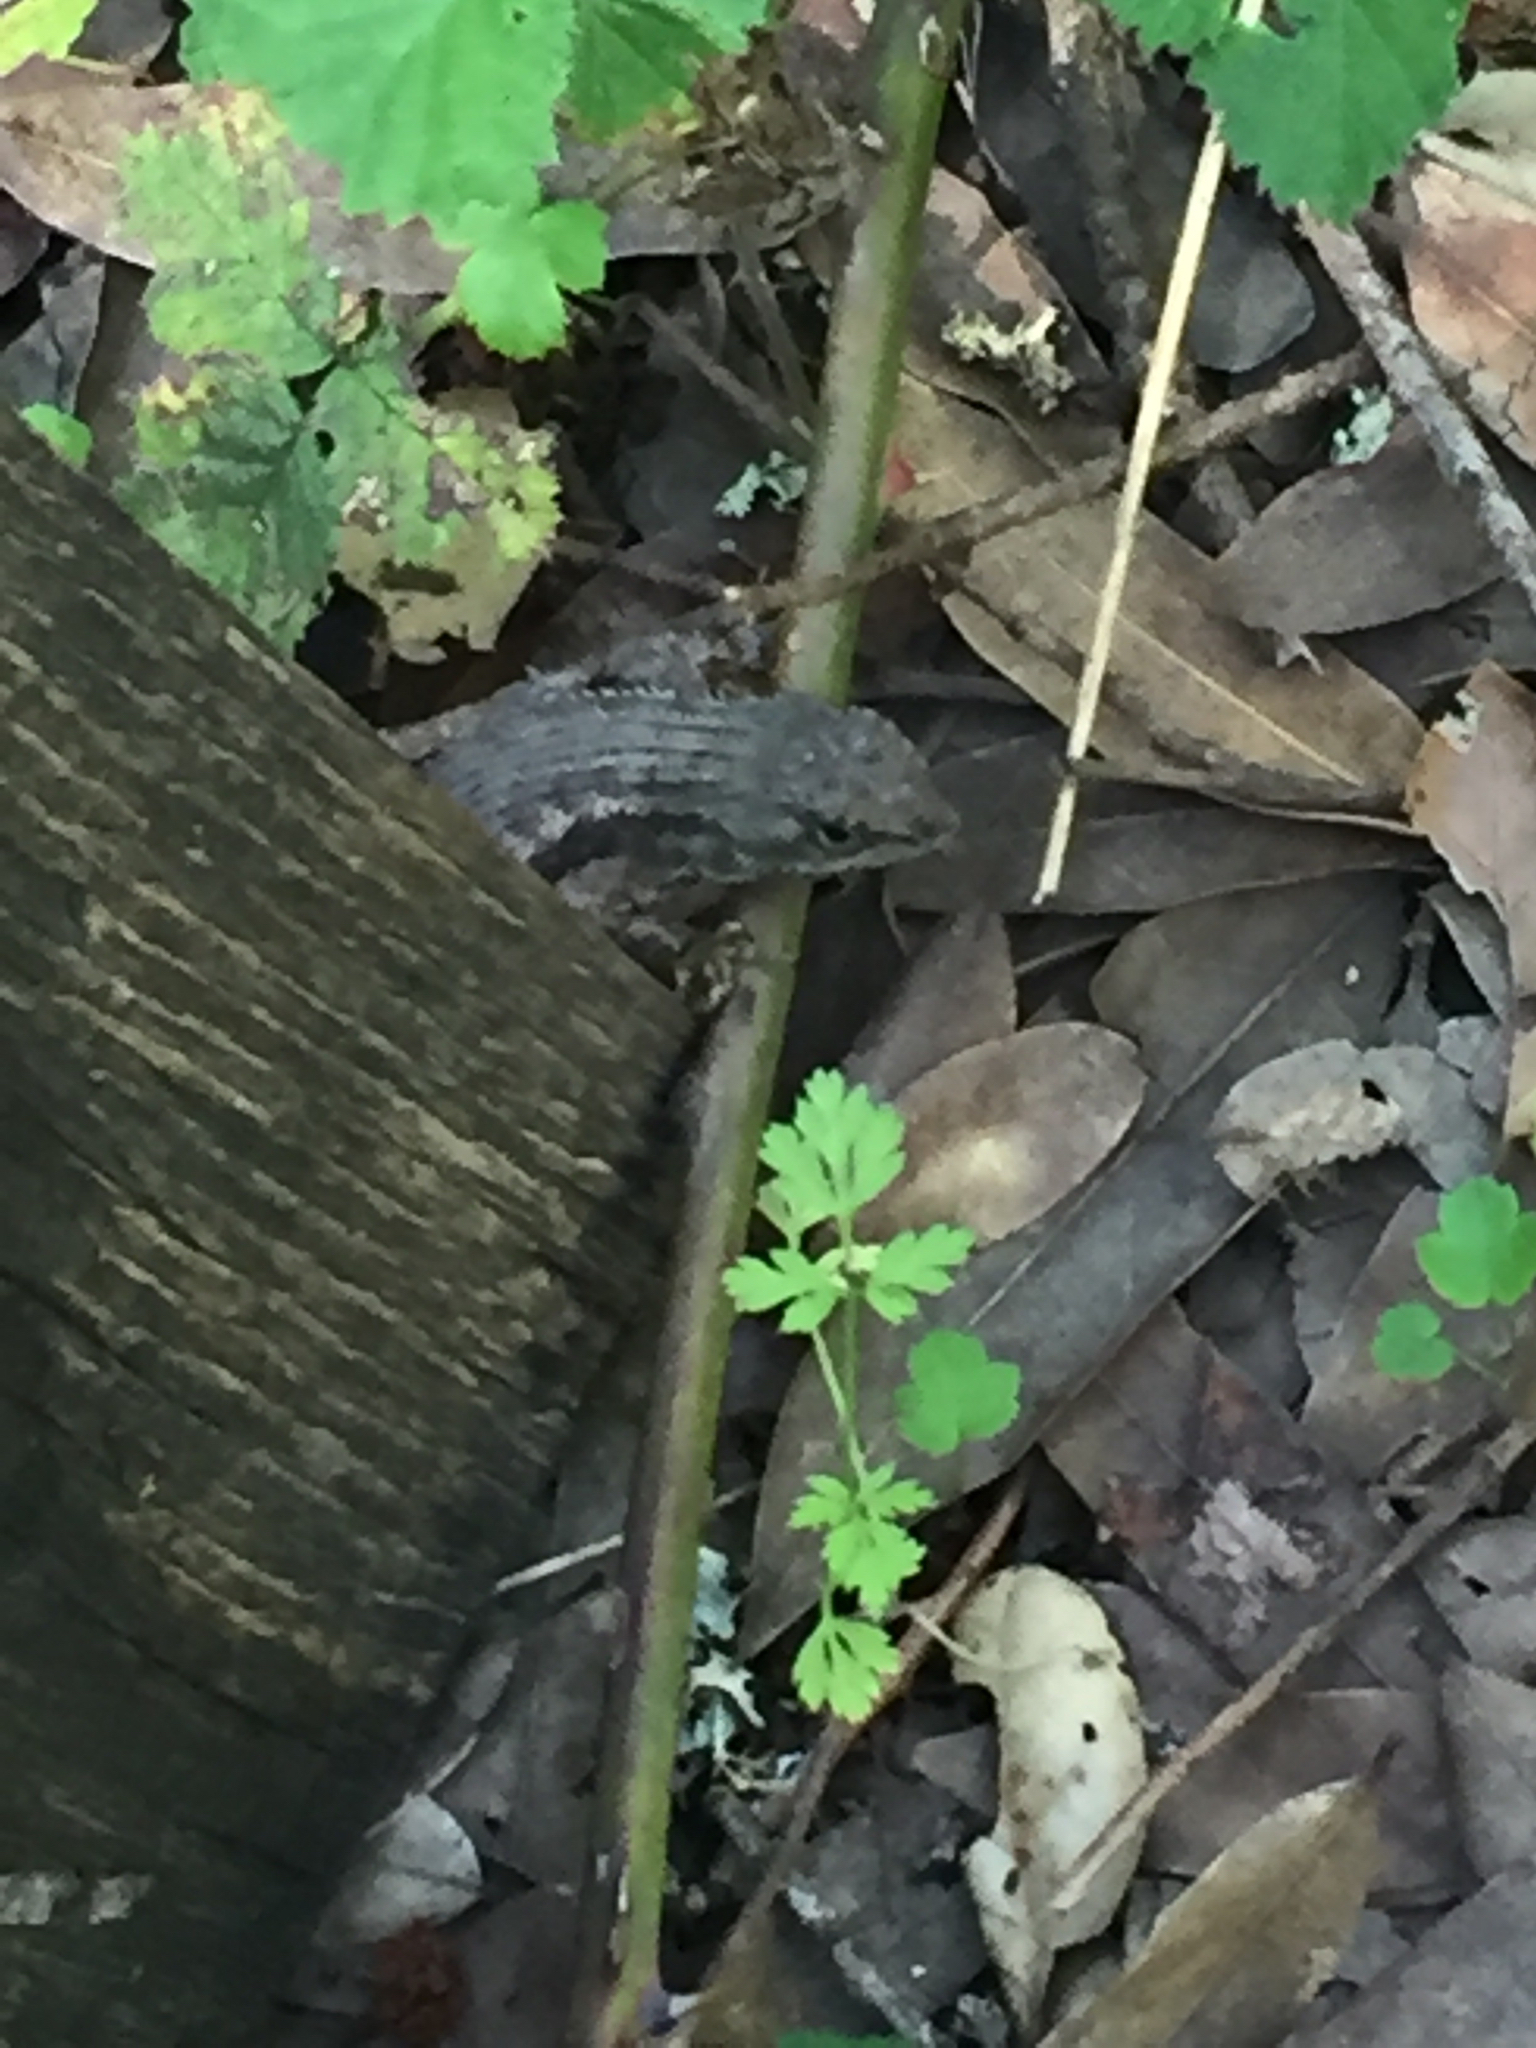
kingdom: Animalia
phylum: Chordata
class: Squamata
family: Phrynosomatidae
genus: Sceloporus
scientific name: Sceloporus occidentalis
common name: Western fence lizard
